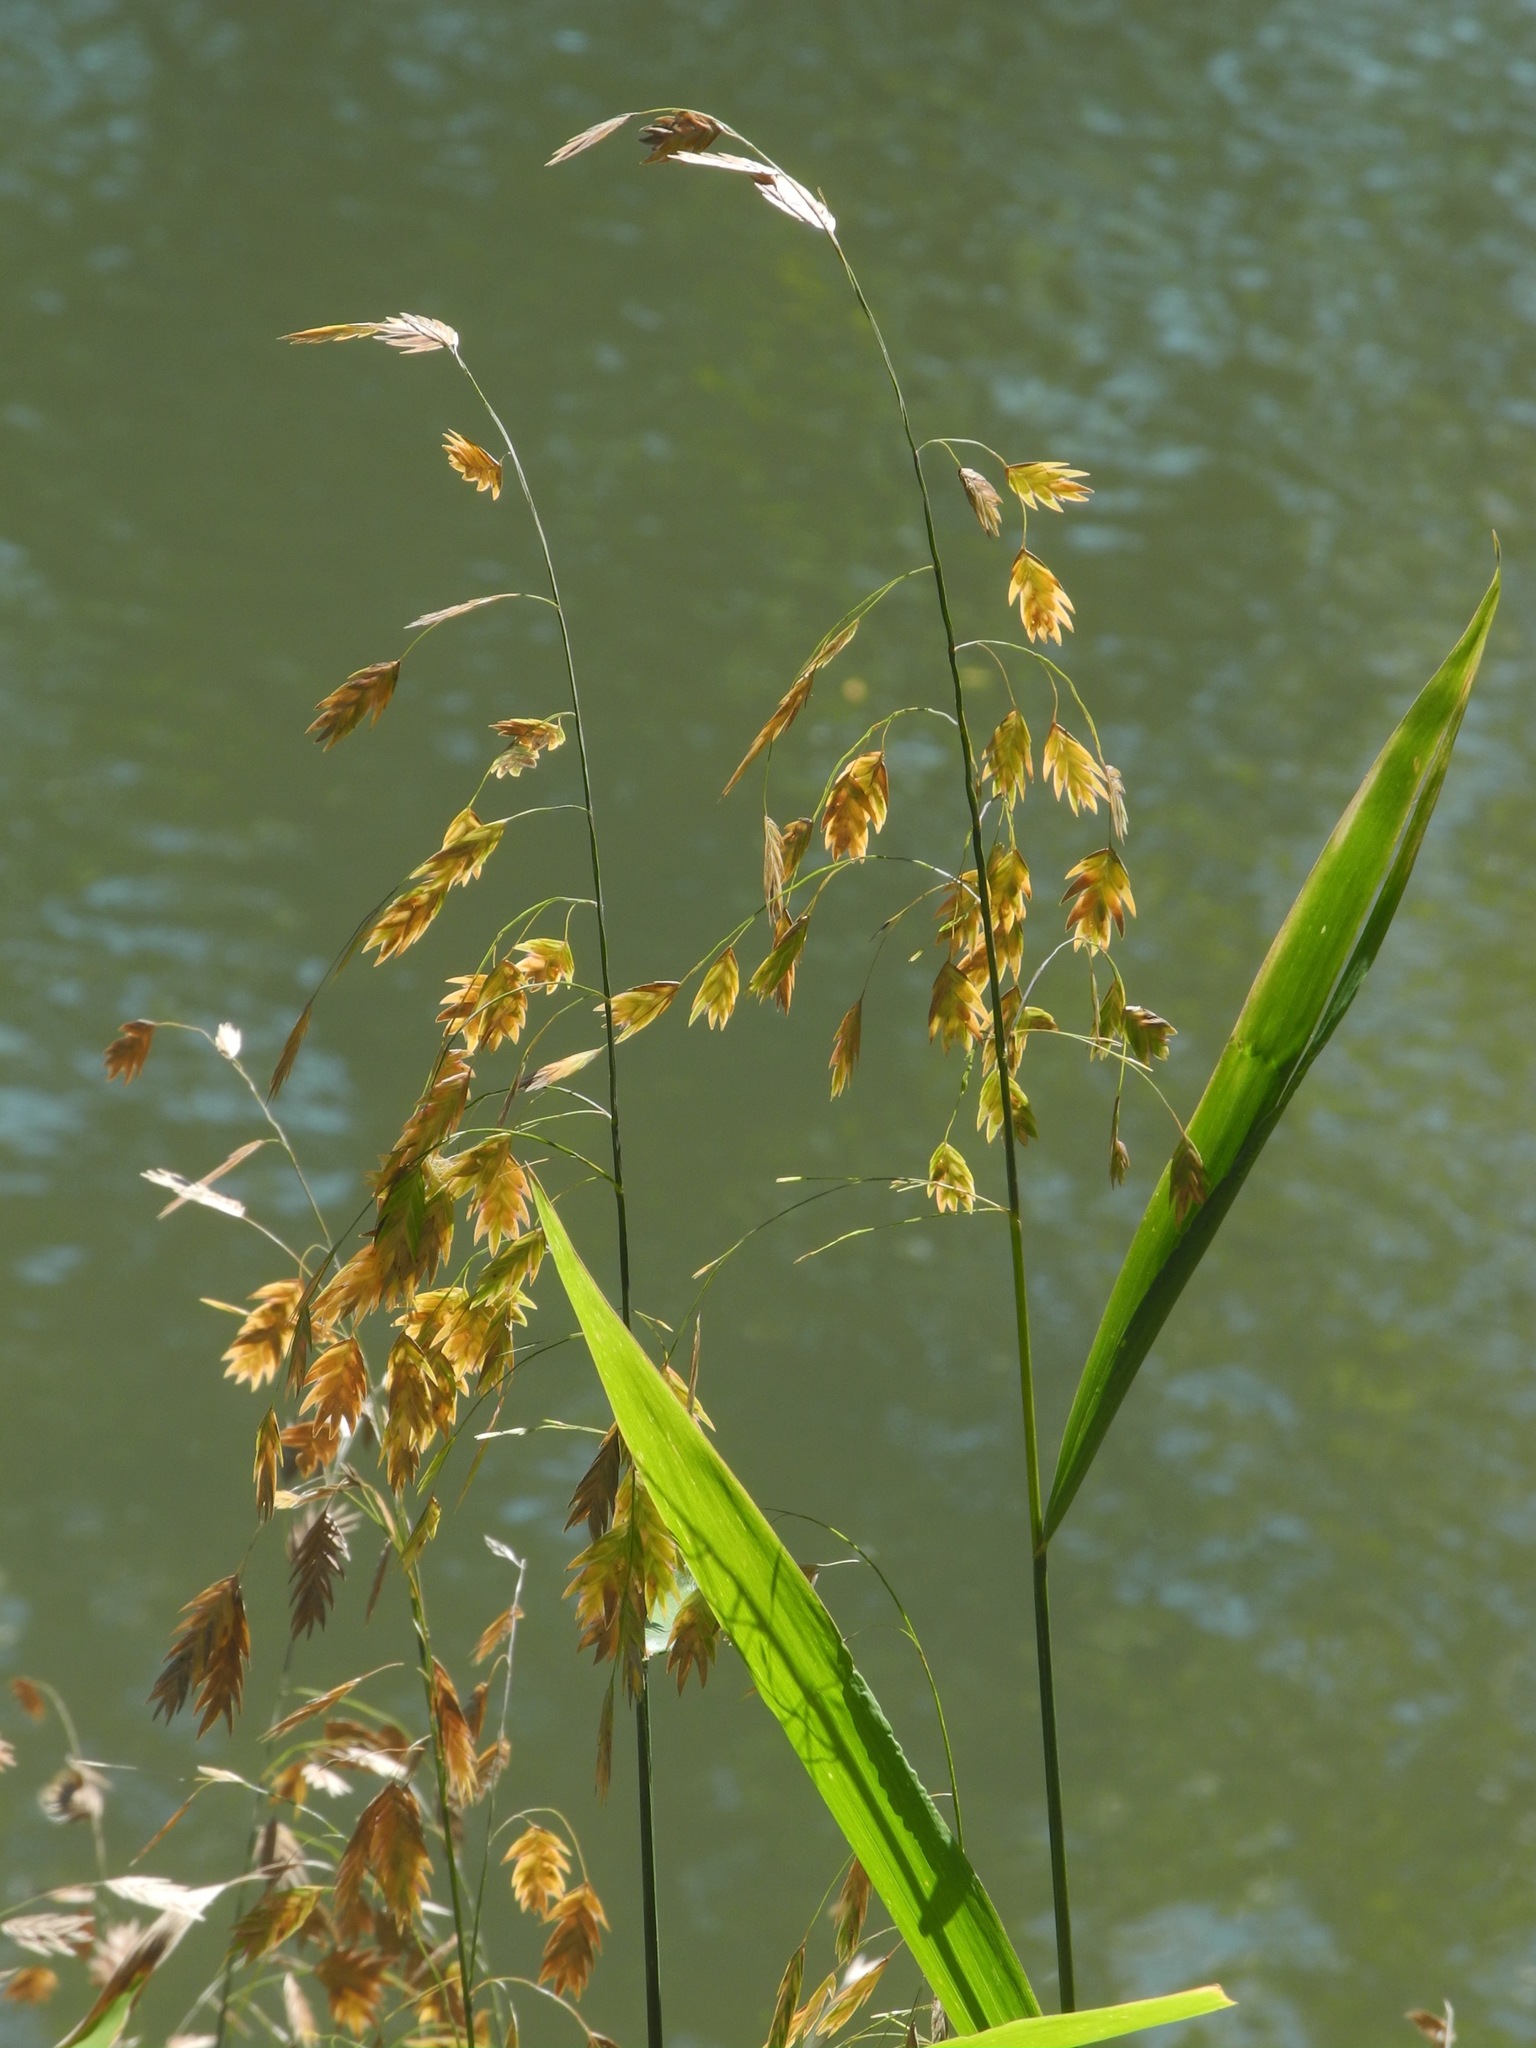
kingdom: Plantae
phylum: Tracheophyta
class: Liliopsida
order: Poales
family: Poaceae
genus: Chasmanthium
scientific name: Chasmanthium latifolium
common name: Broad-leaved chasmanthium
